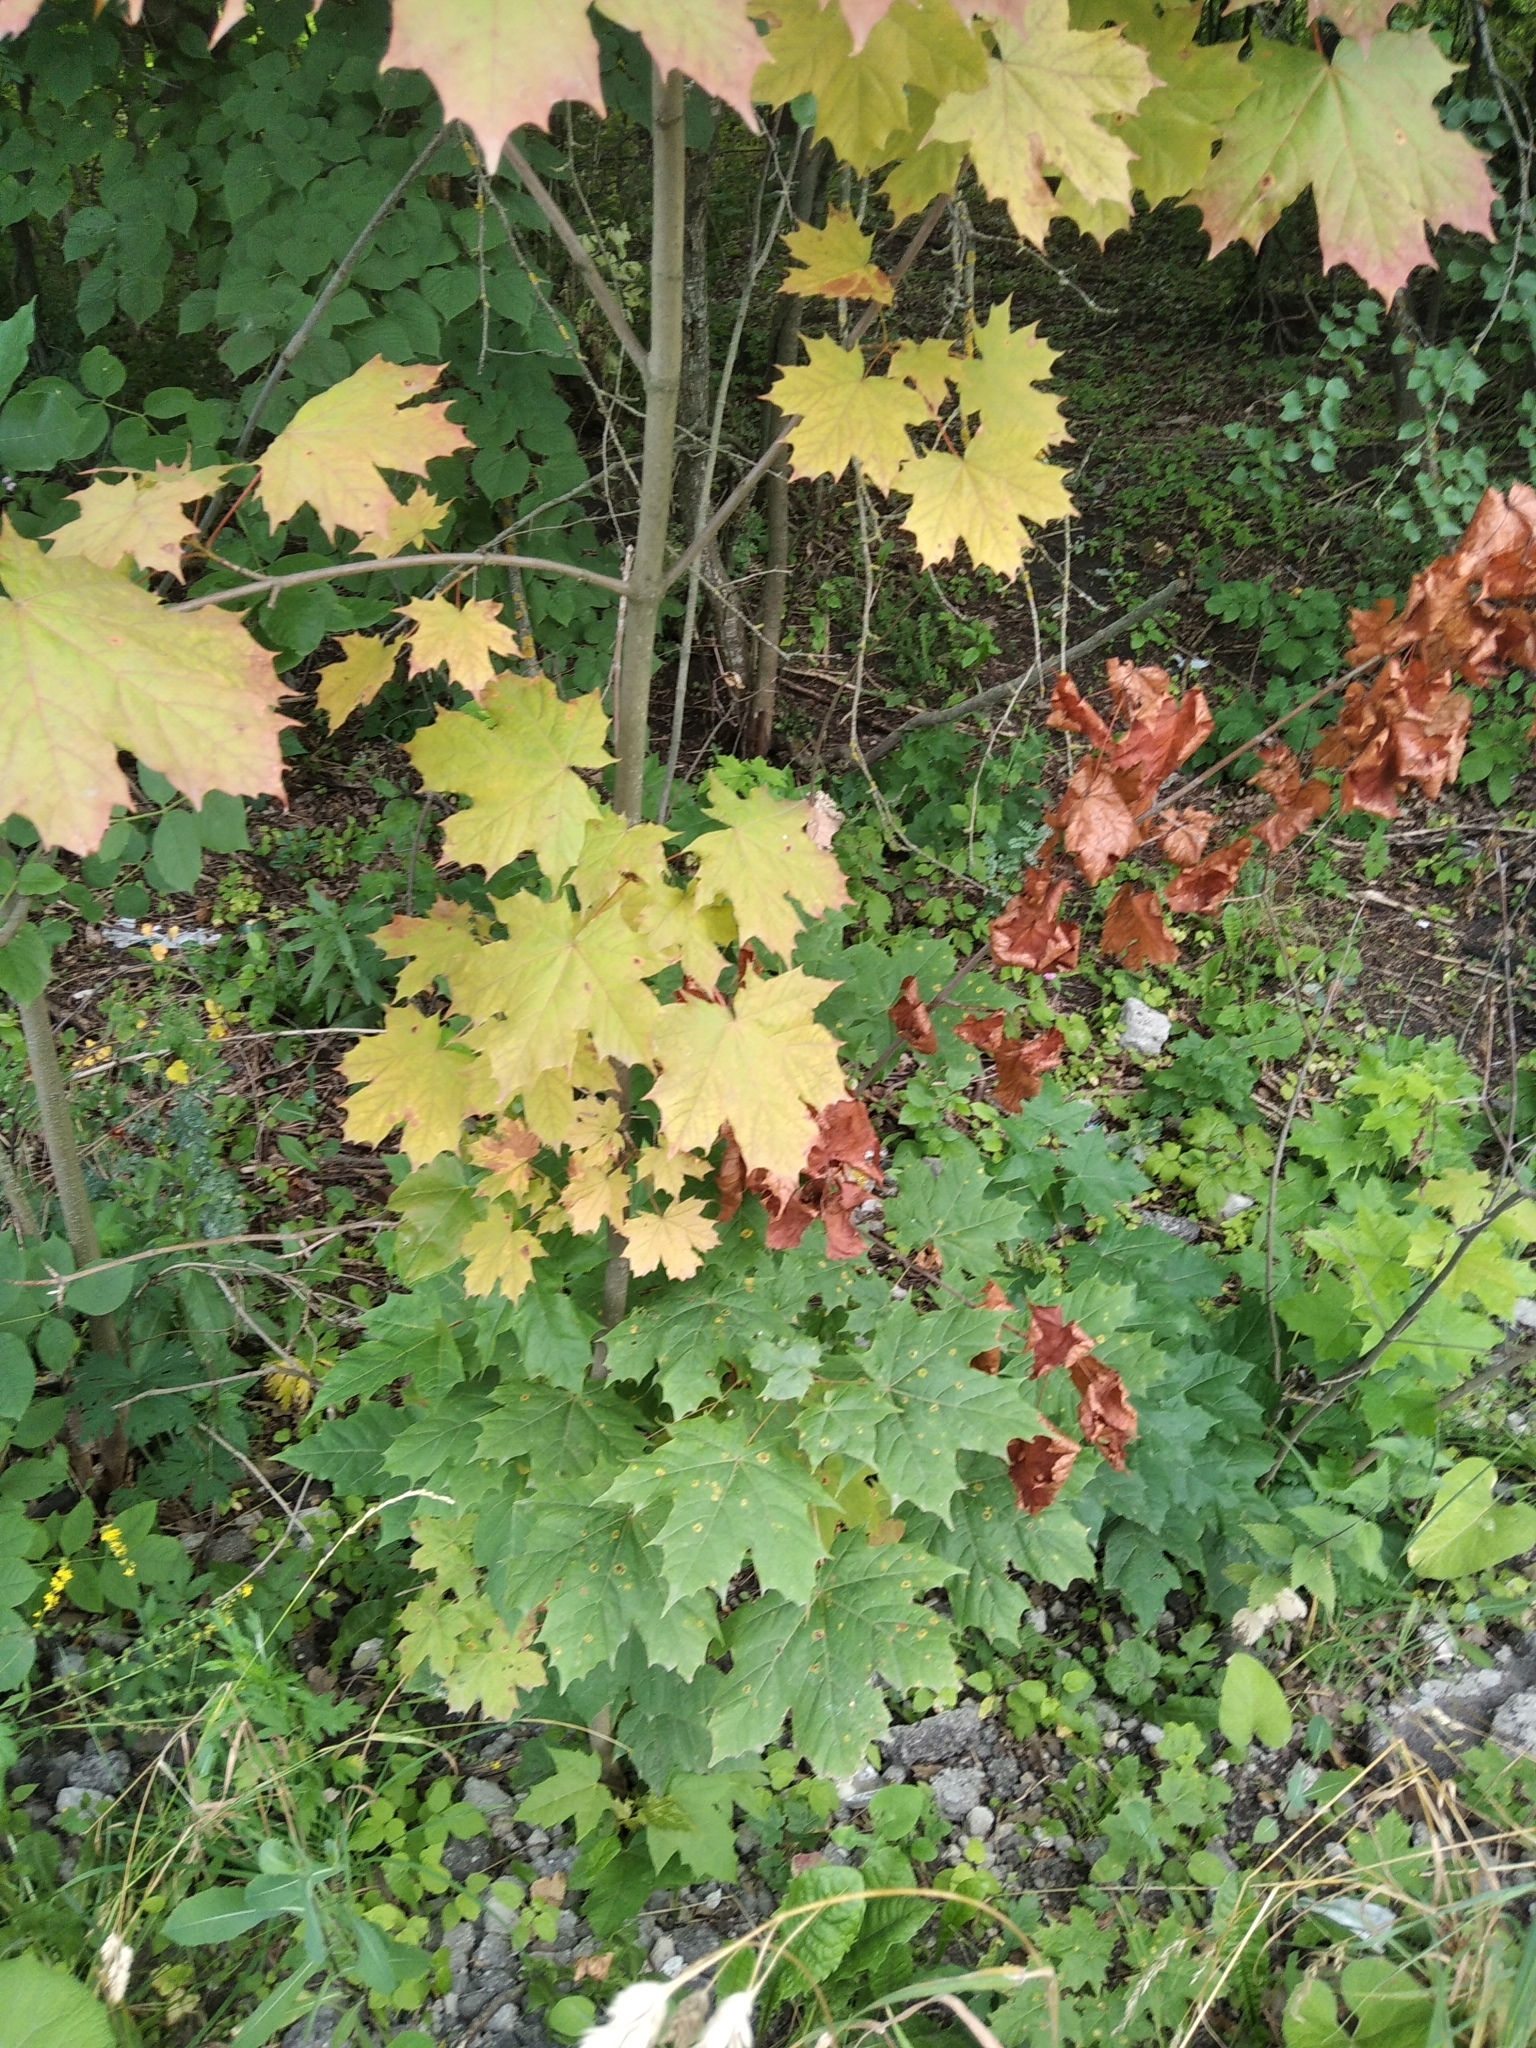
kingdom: Plantae
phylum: Tracheophyta
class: Magnoliopsida
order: Sapindales
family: Sapindaceae
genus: Acer
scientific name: Acer platanoides
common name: Norway maple
